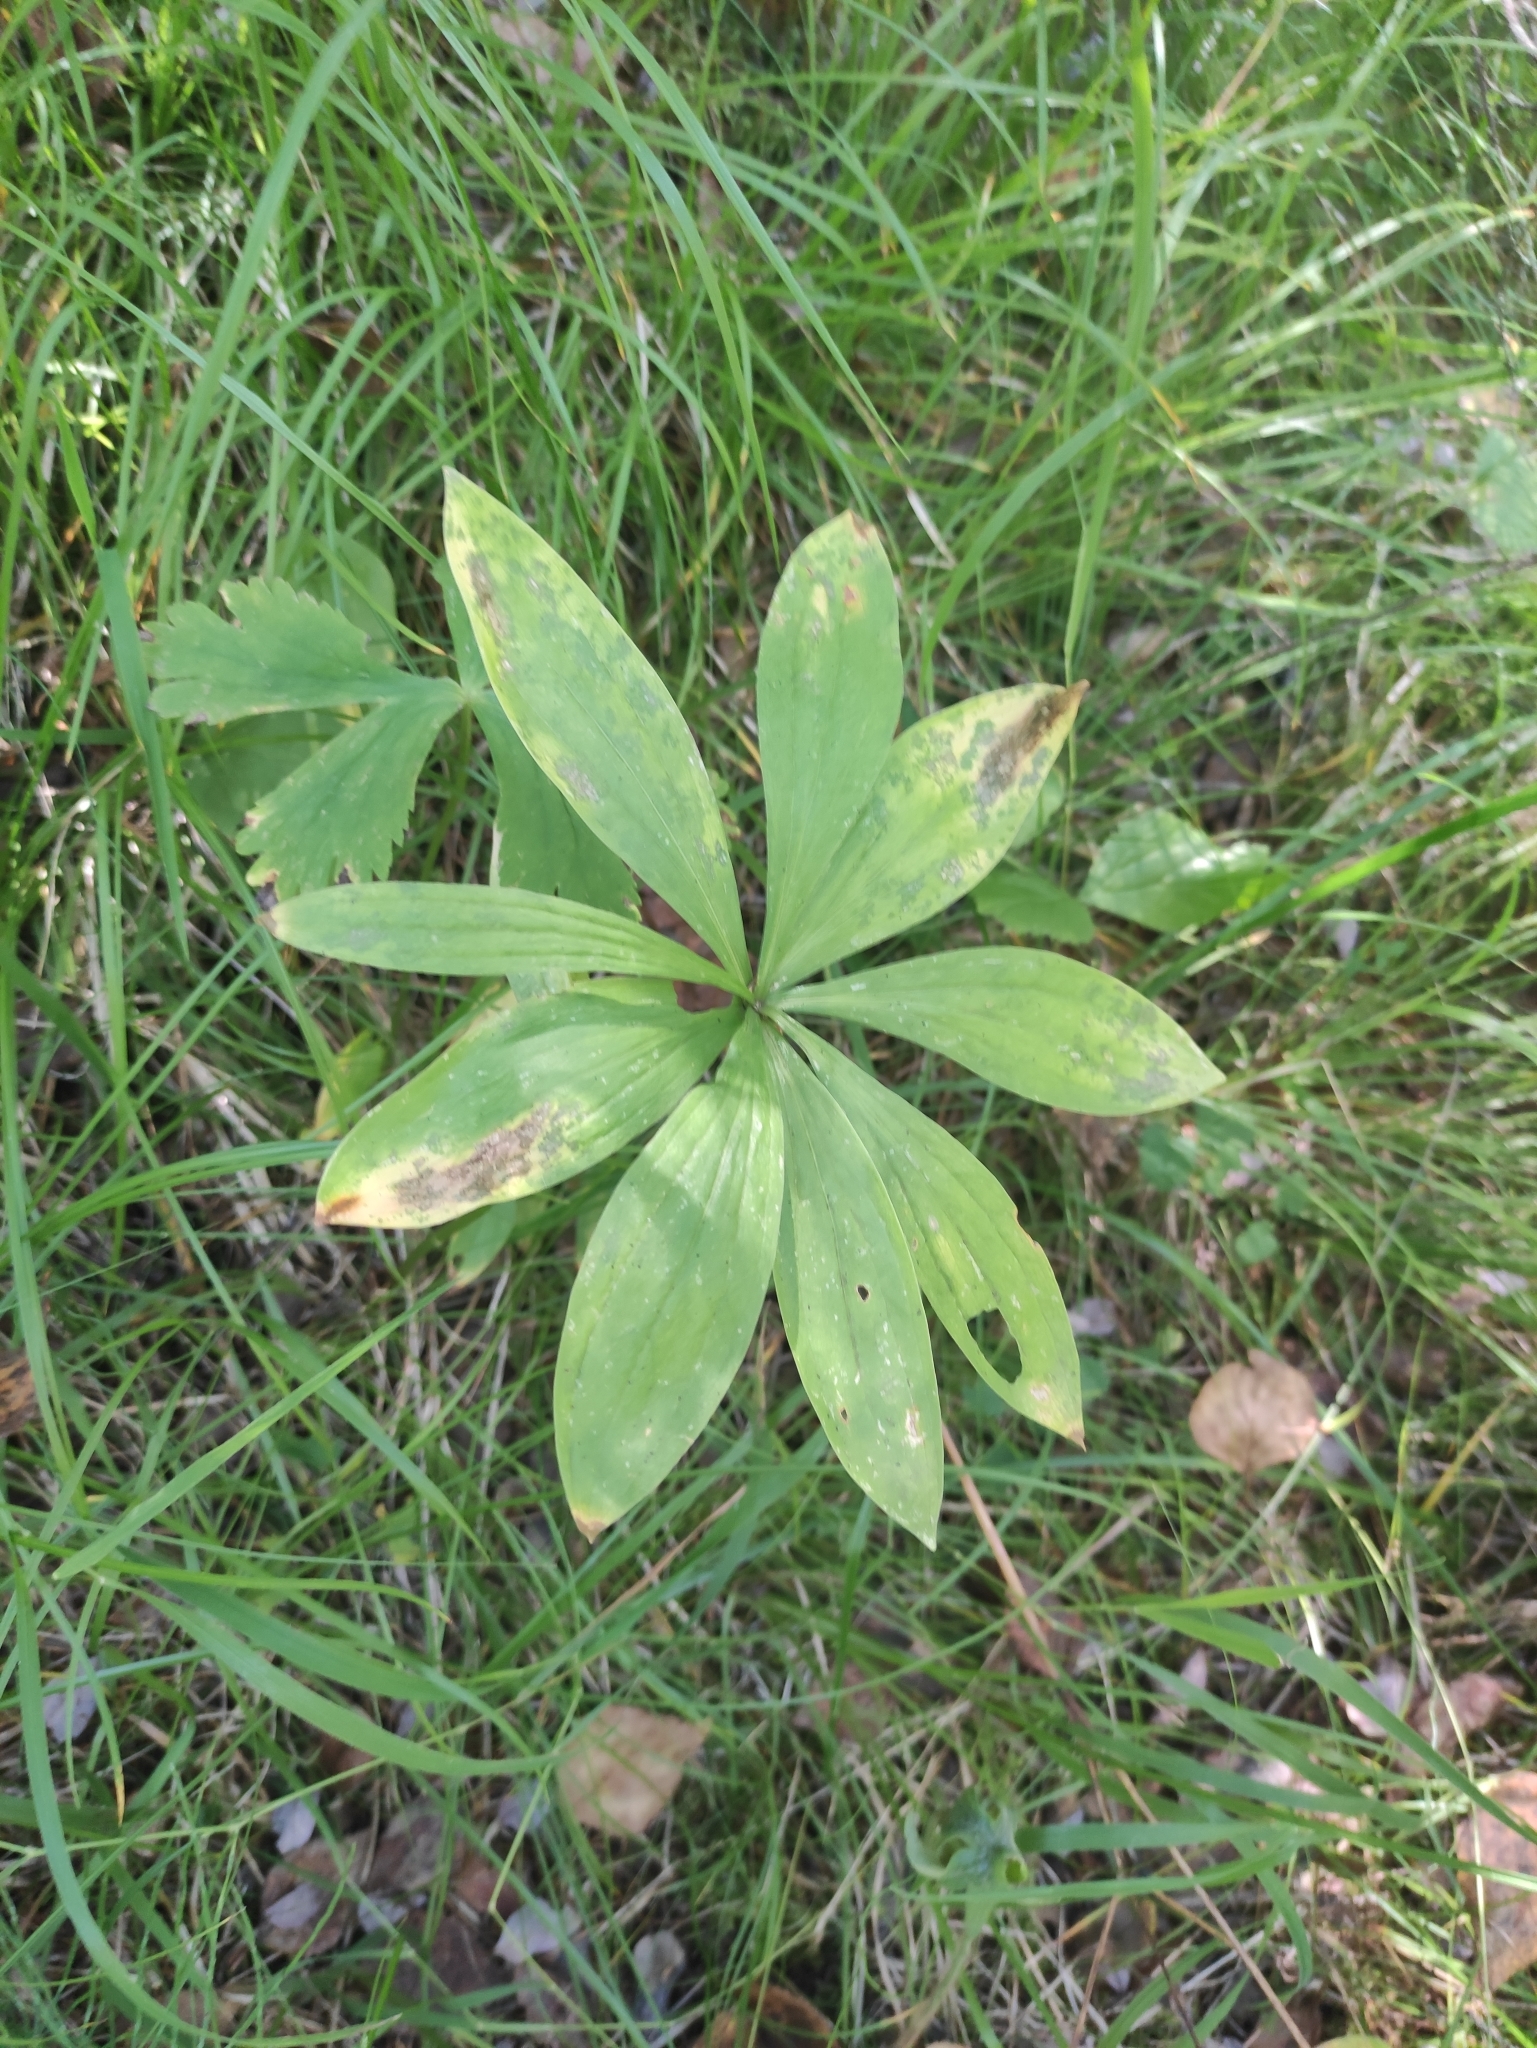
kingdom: Plantae
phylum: Tracheophyta
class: Liliopsida
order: Liliales
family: Liliaceae
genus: Lilium
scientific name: Lilium martagon
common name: Martagon lily
